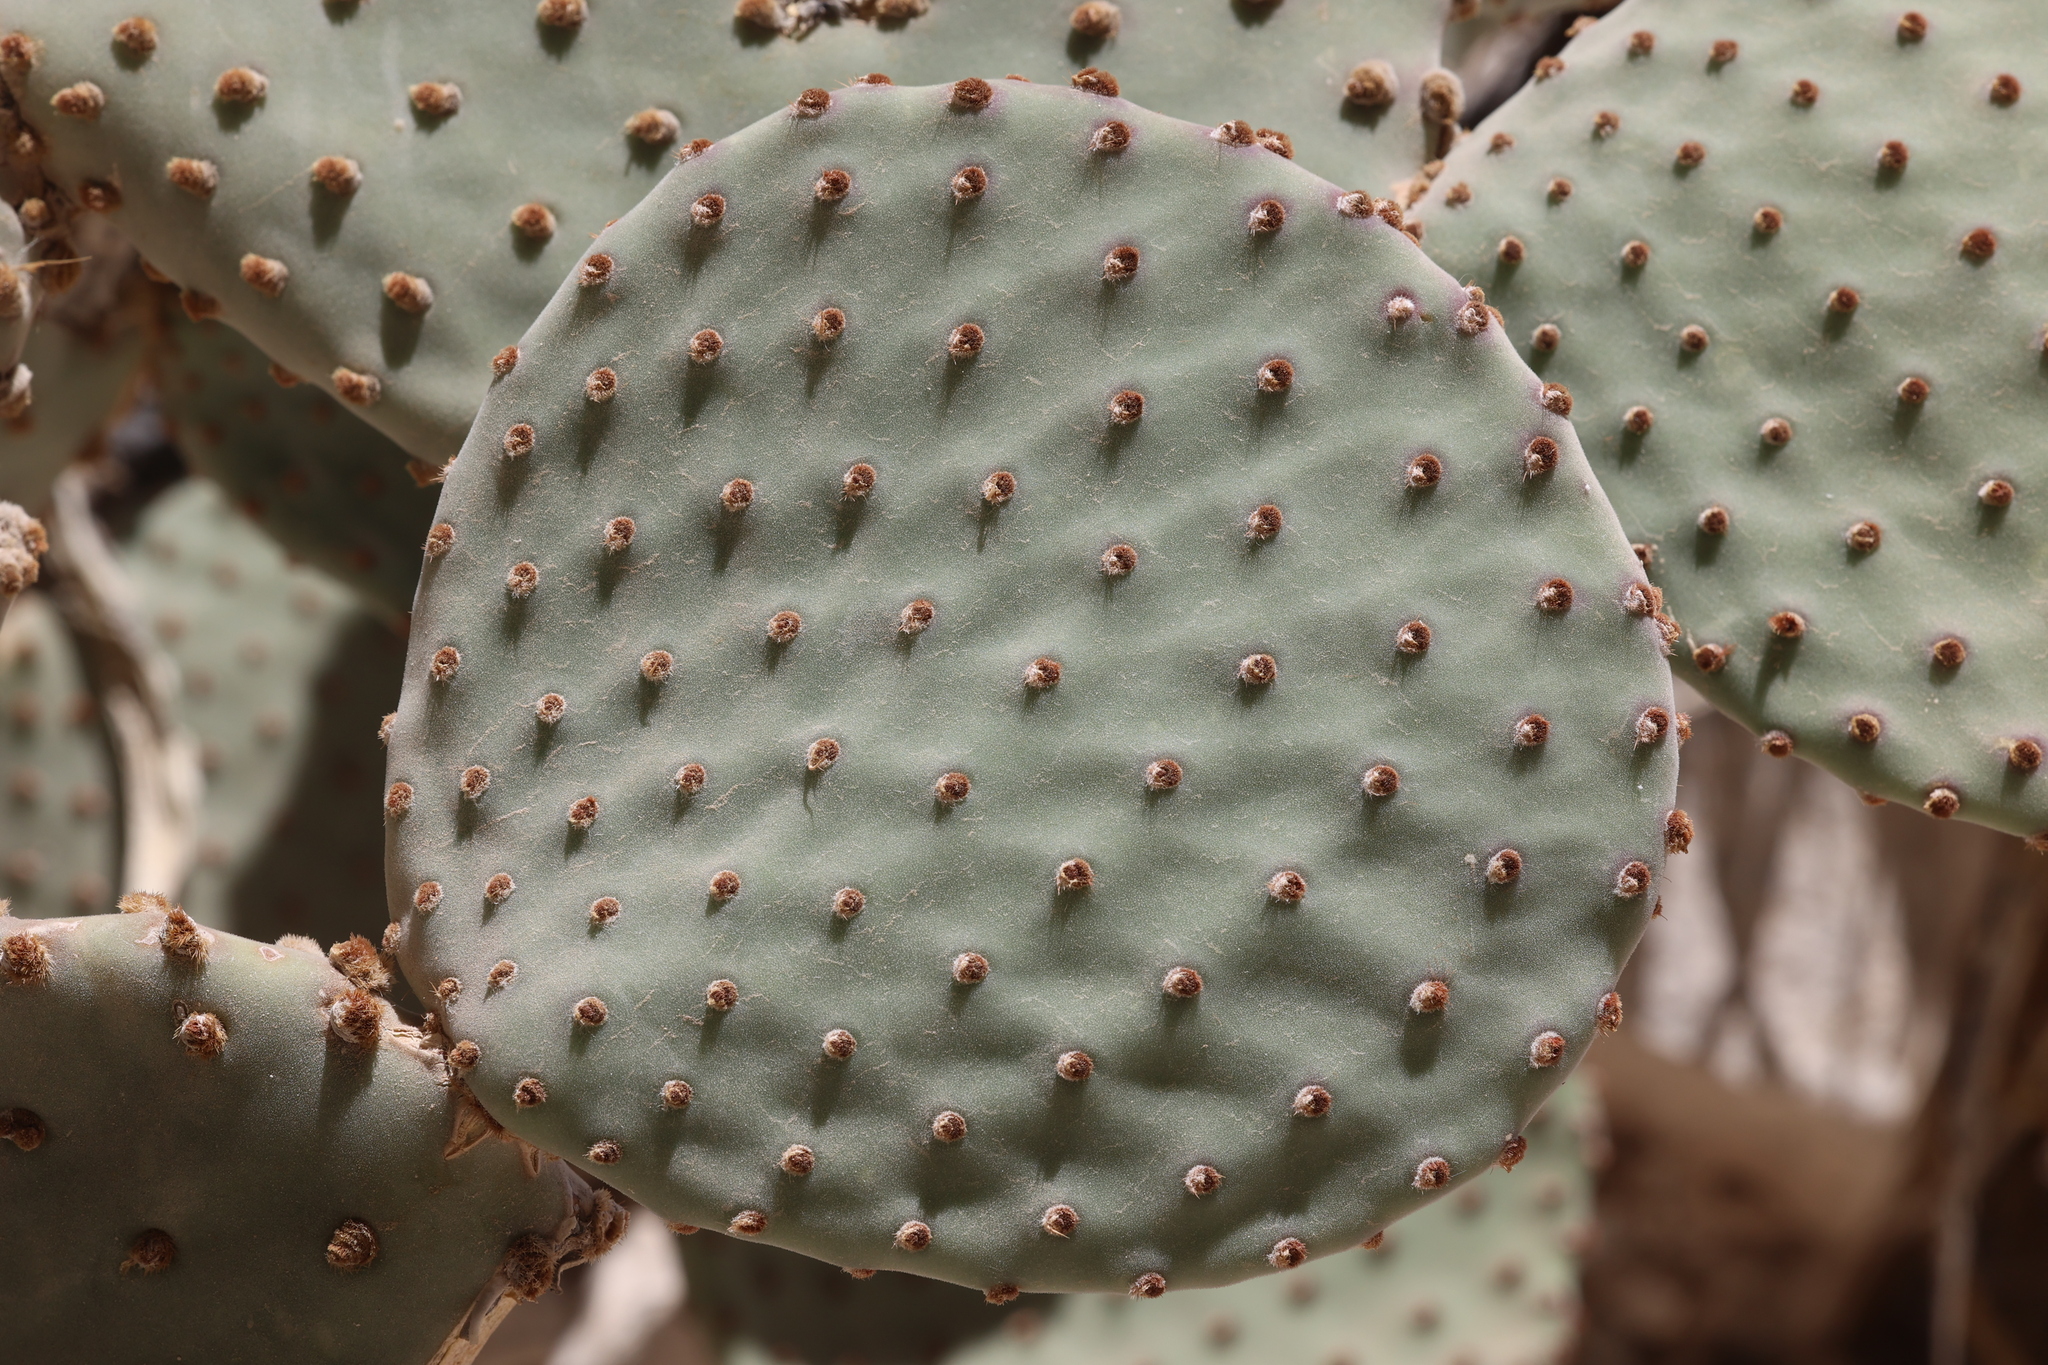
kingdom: Plantae
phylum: Tracheophyta
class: Magnoliopsida
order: Caryophyllales
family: Cactaceae
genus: Opuntia
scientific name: Opuntia rufida
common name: Blind pricklypear
